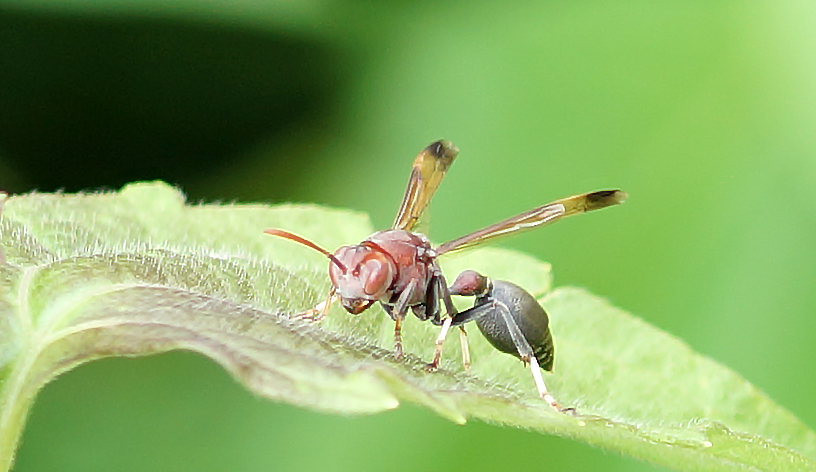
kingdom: Animalia
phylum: Arthropoda
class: Insecta
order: Hymenoptera
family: Vespidae
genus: Ropalidia
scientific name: Ropalidia magnanima
